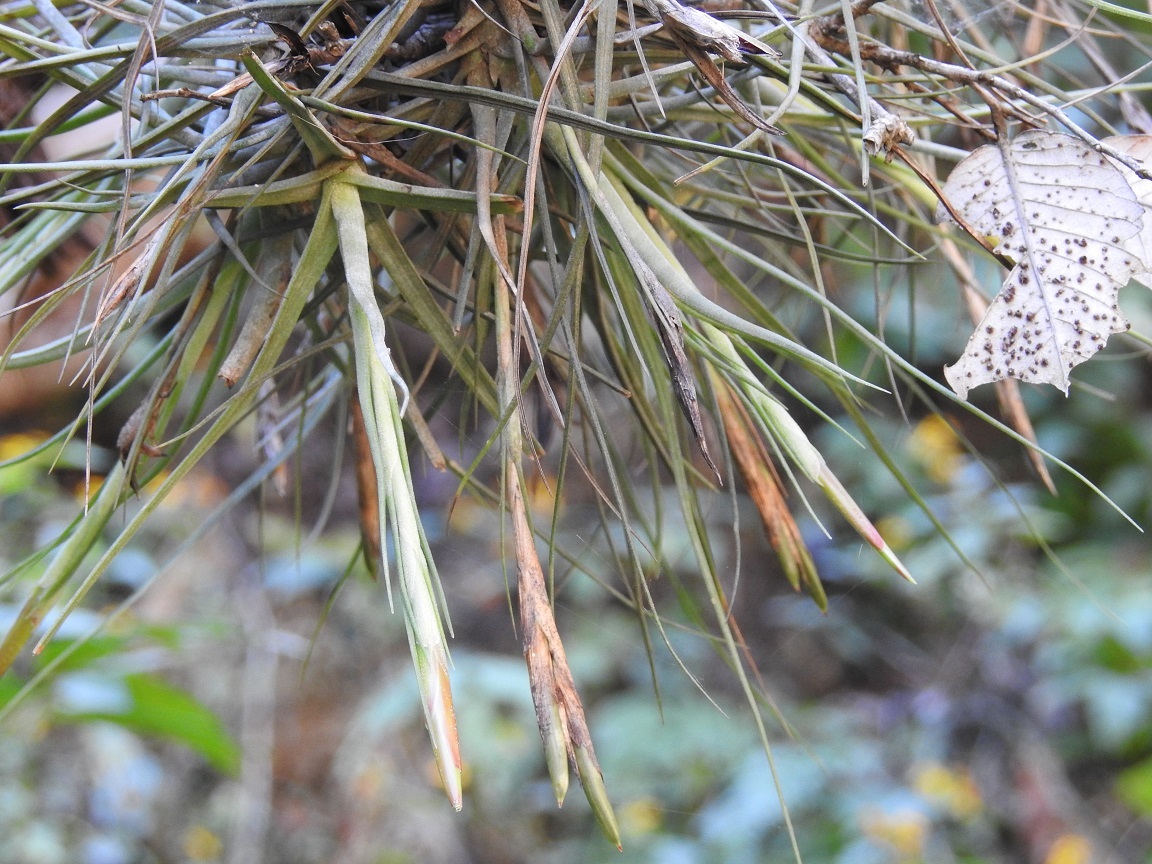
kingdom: Plantae
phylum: Tracheophyta
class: Liliopsida
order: Poales
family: Bromeliaceae
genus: Tillandsia
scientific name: Tillandsia schiedeana
